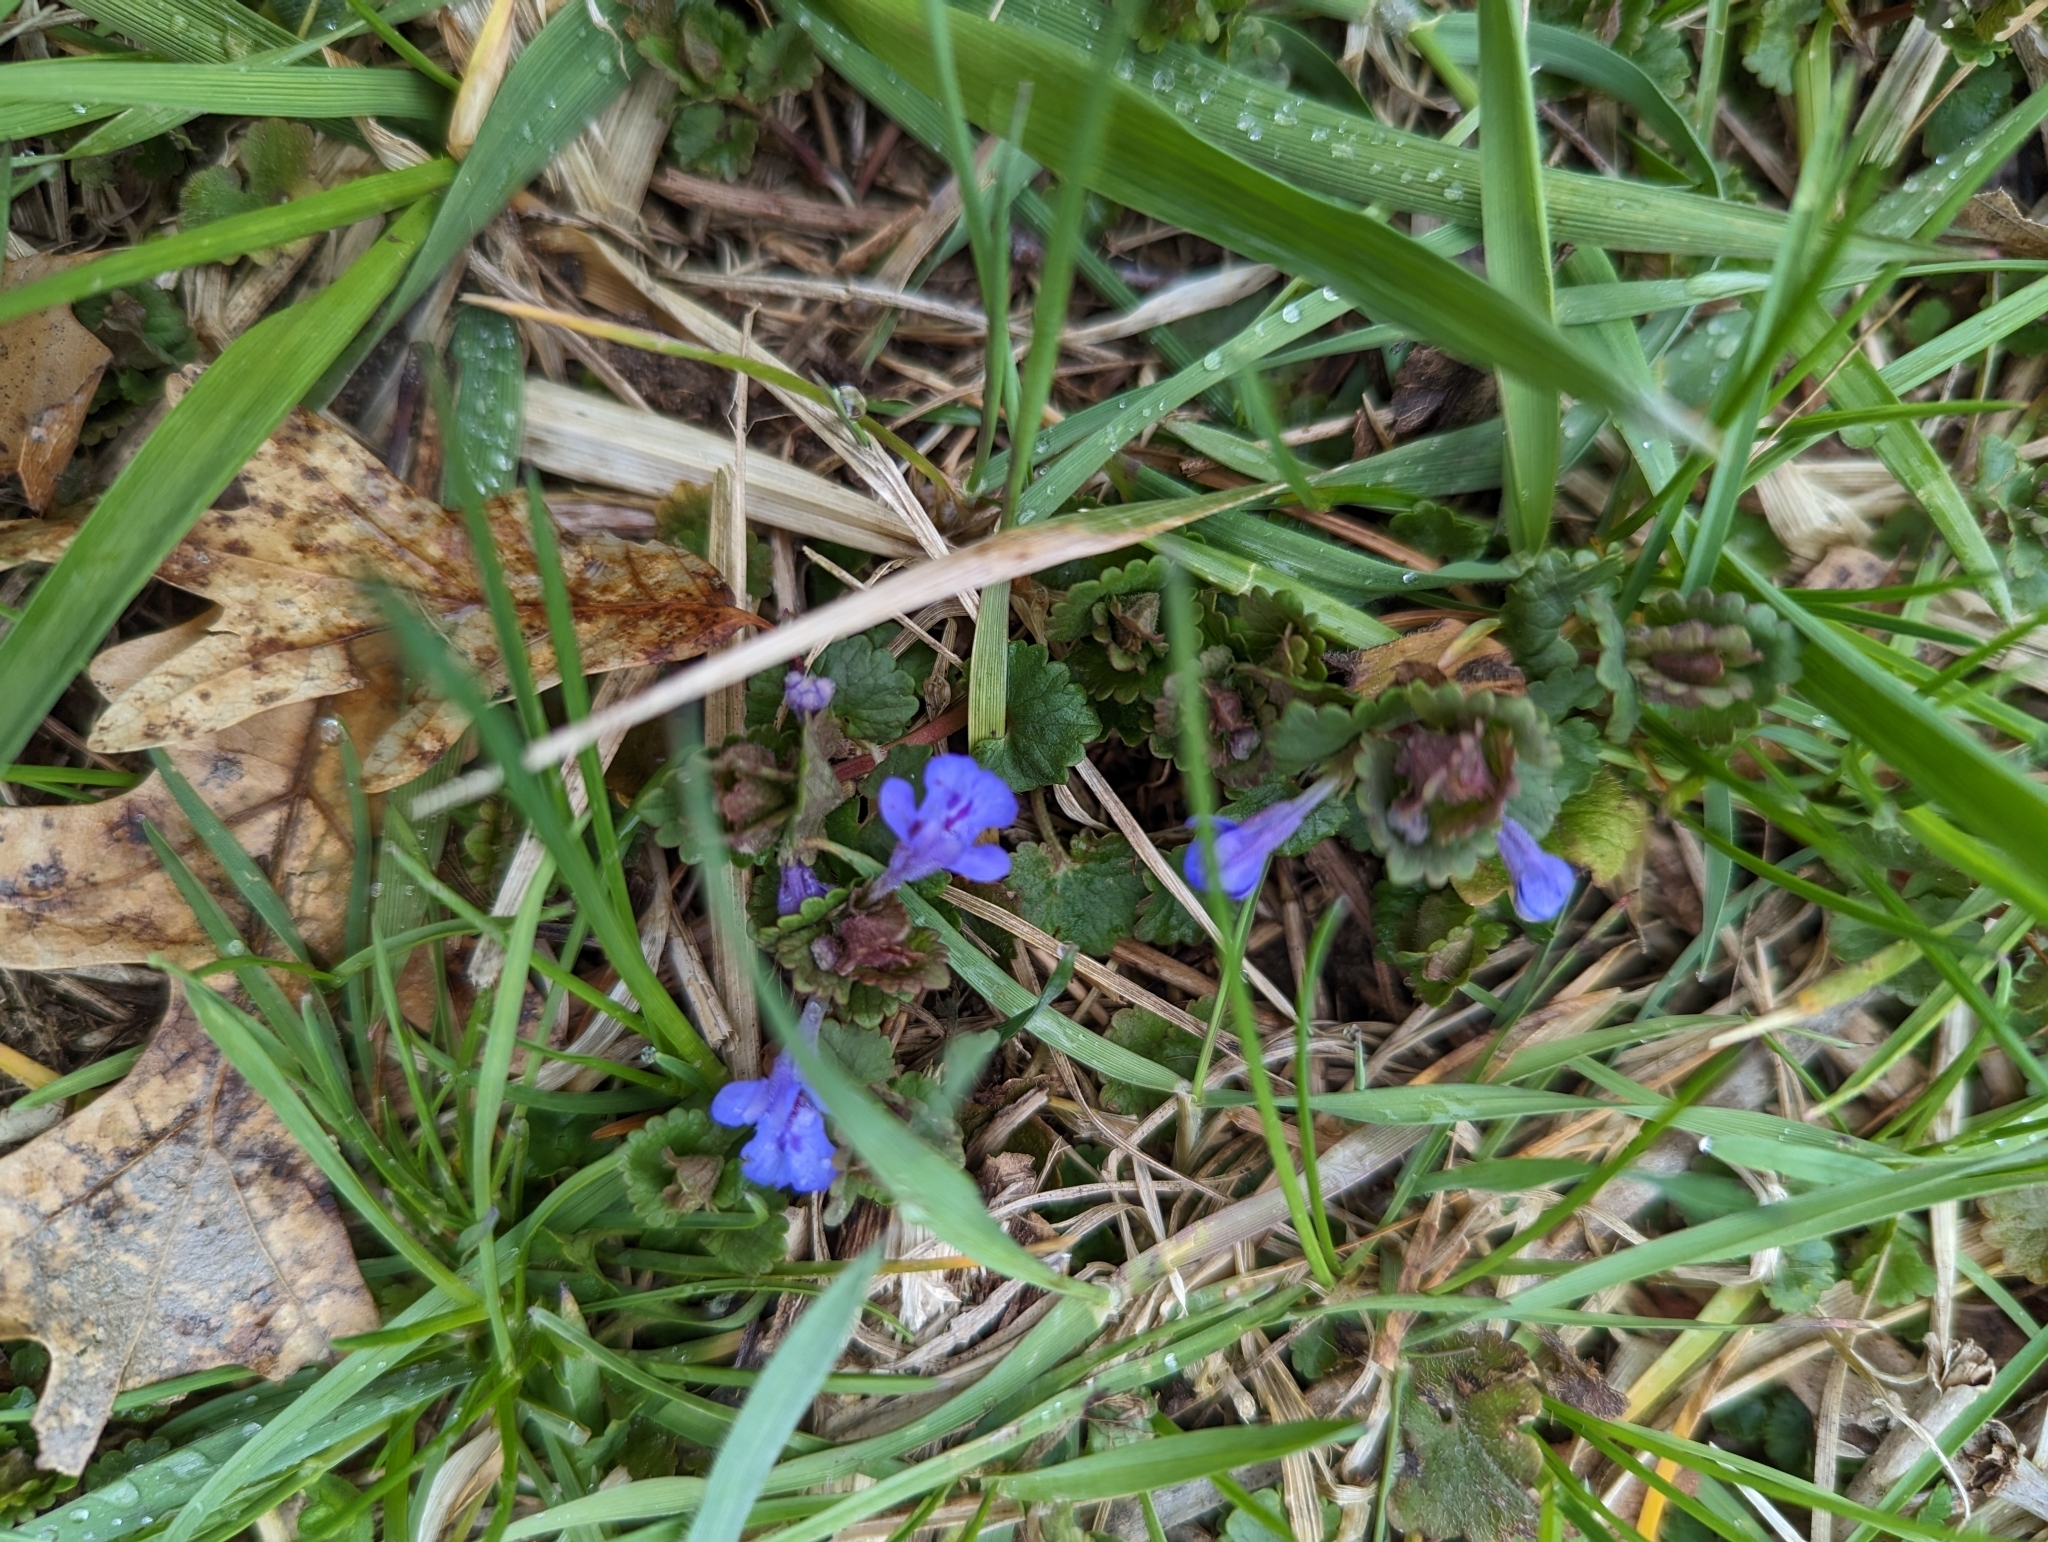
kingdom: Plantae
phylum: Tracheophyta
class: Magnoliopsida
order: Lamiales
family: Lamiaceae
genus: Glechoma
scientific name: Glechoma hederacea
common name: Ground ivy
